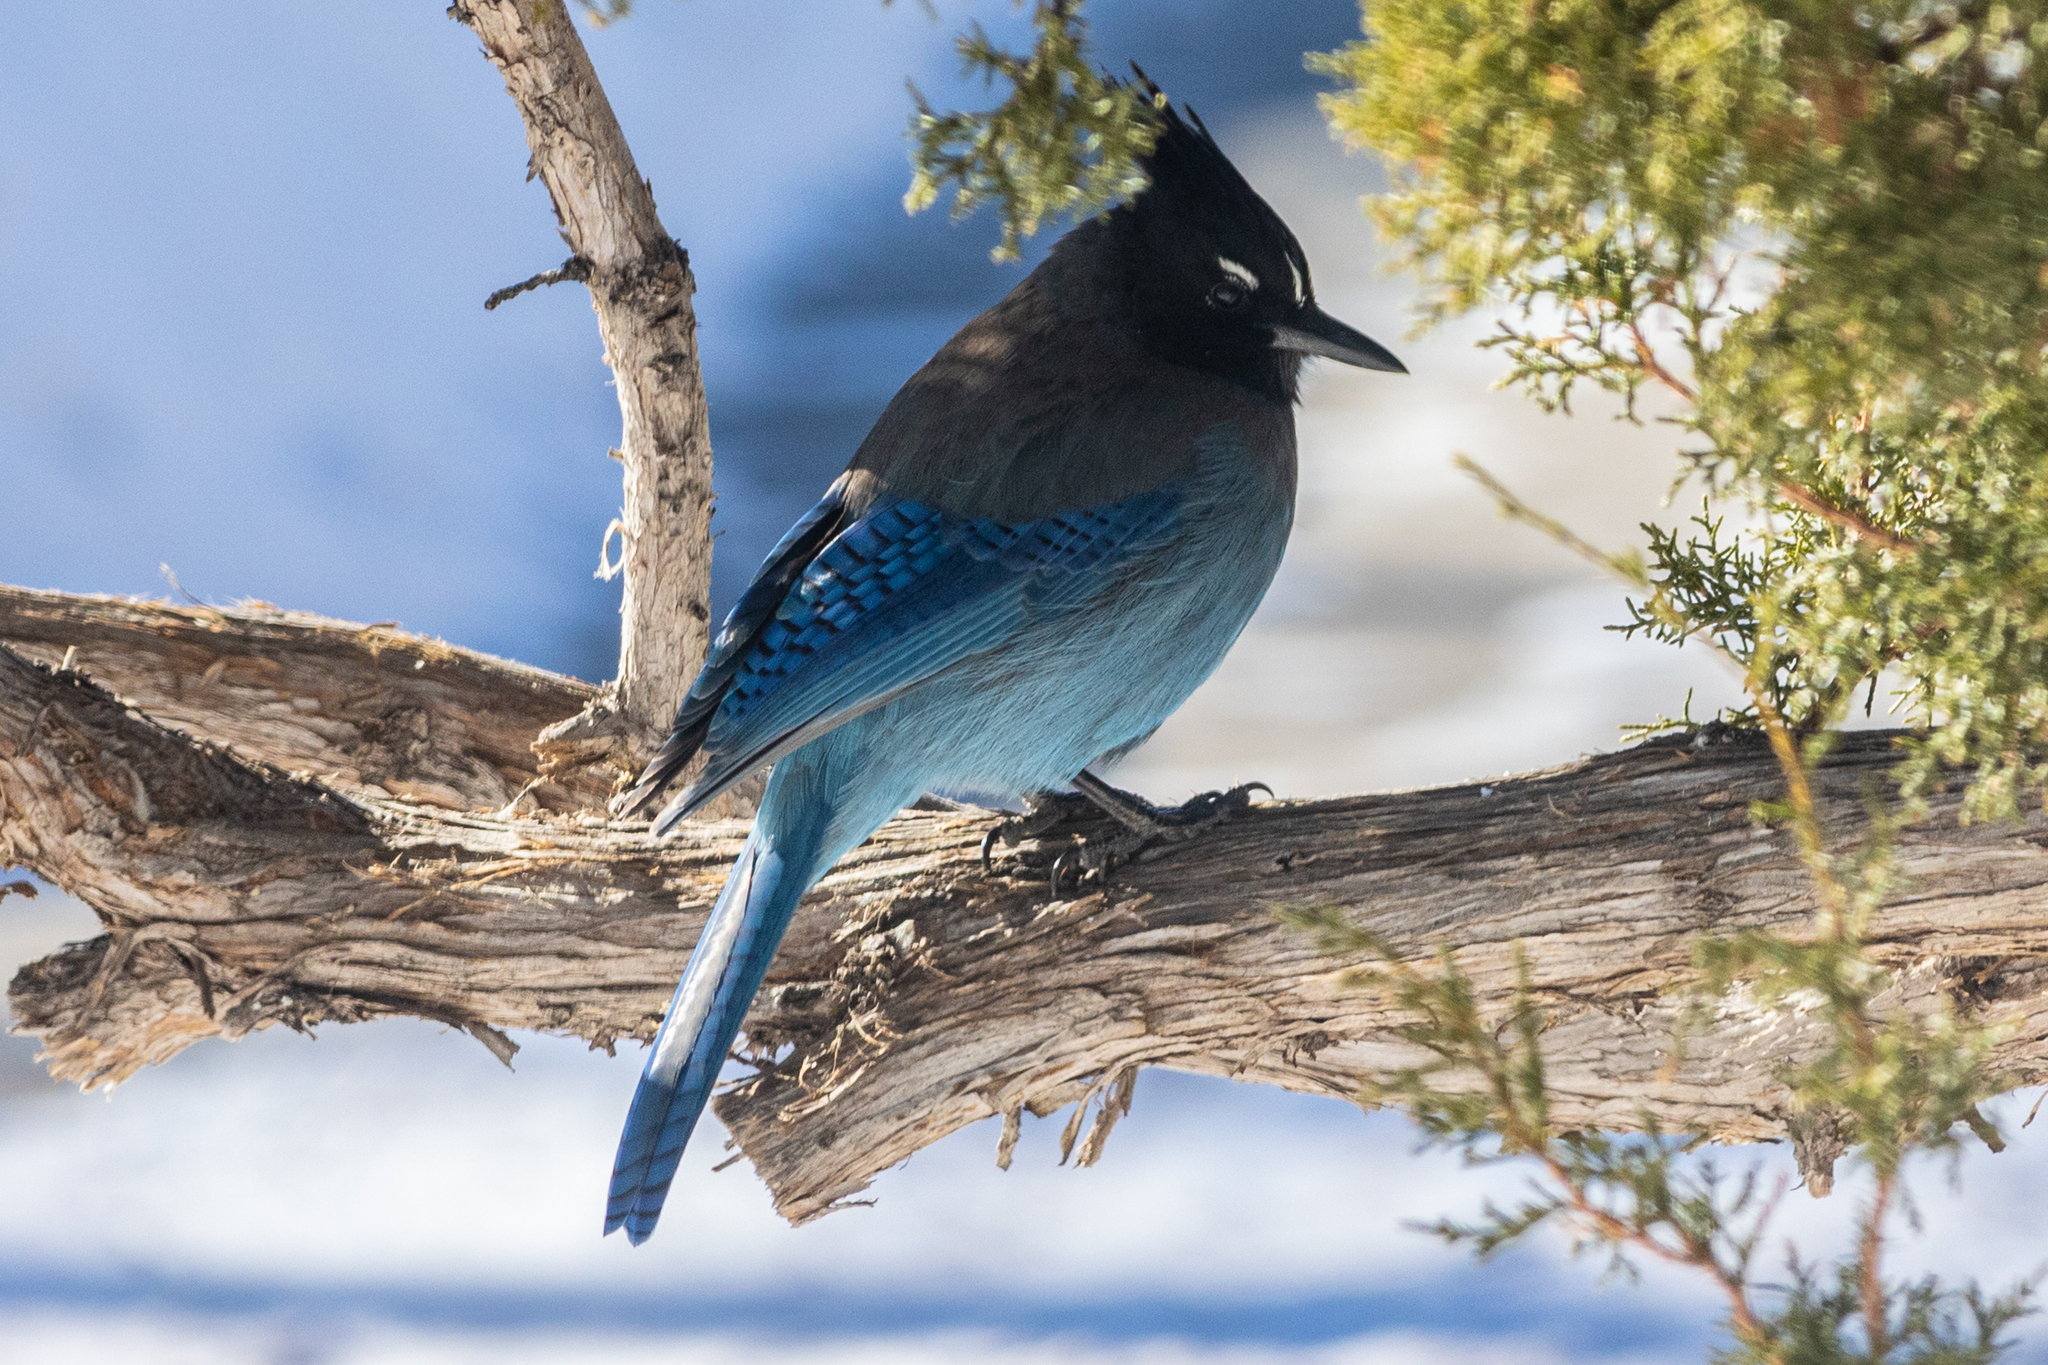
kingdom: Animalia
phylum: Chordata
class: Aves
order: Passeriformes
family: Corvidae
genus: Cyanocitta
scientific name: Cyanocitta stelleri
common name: Steller's jay
